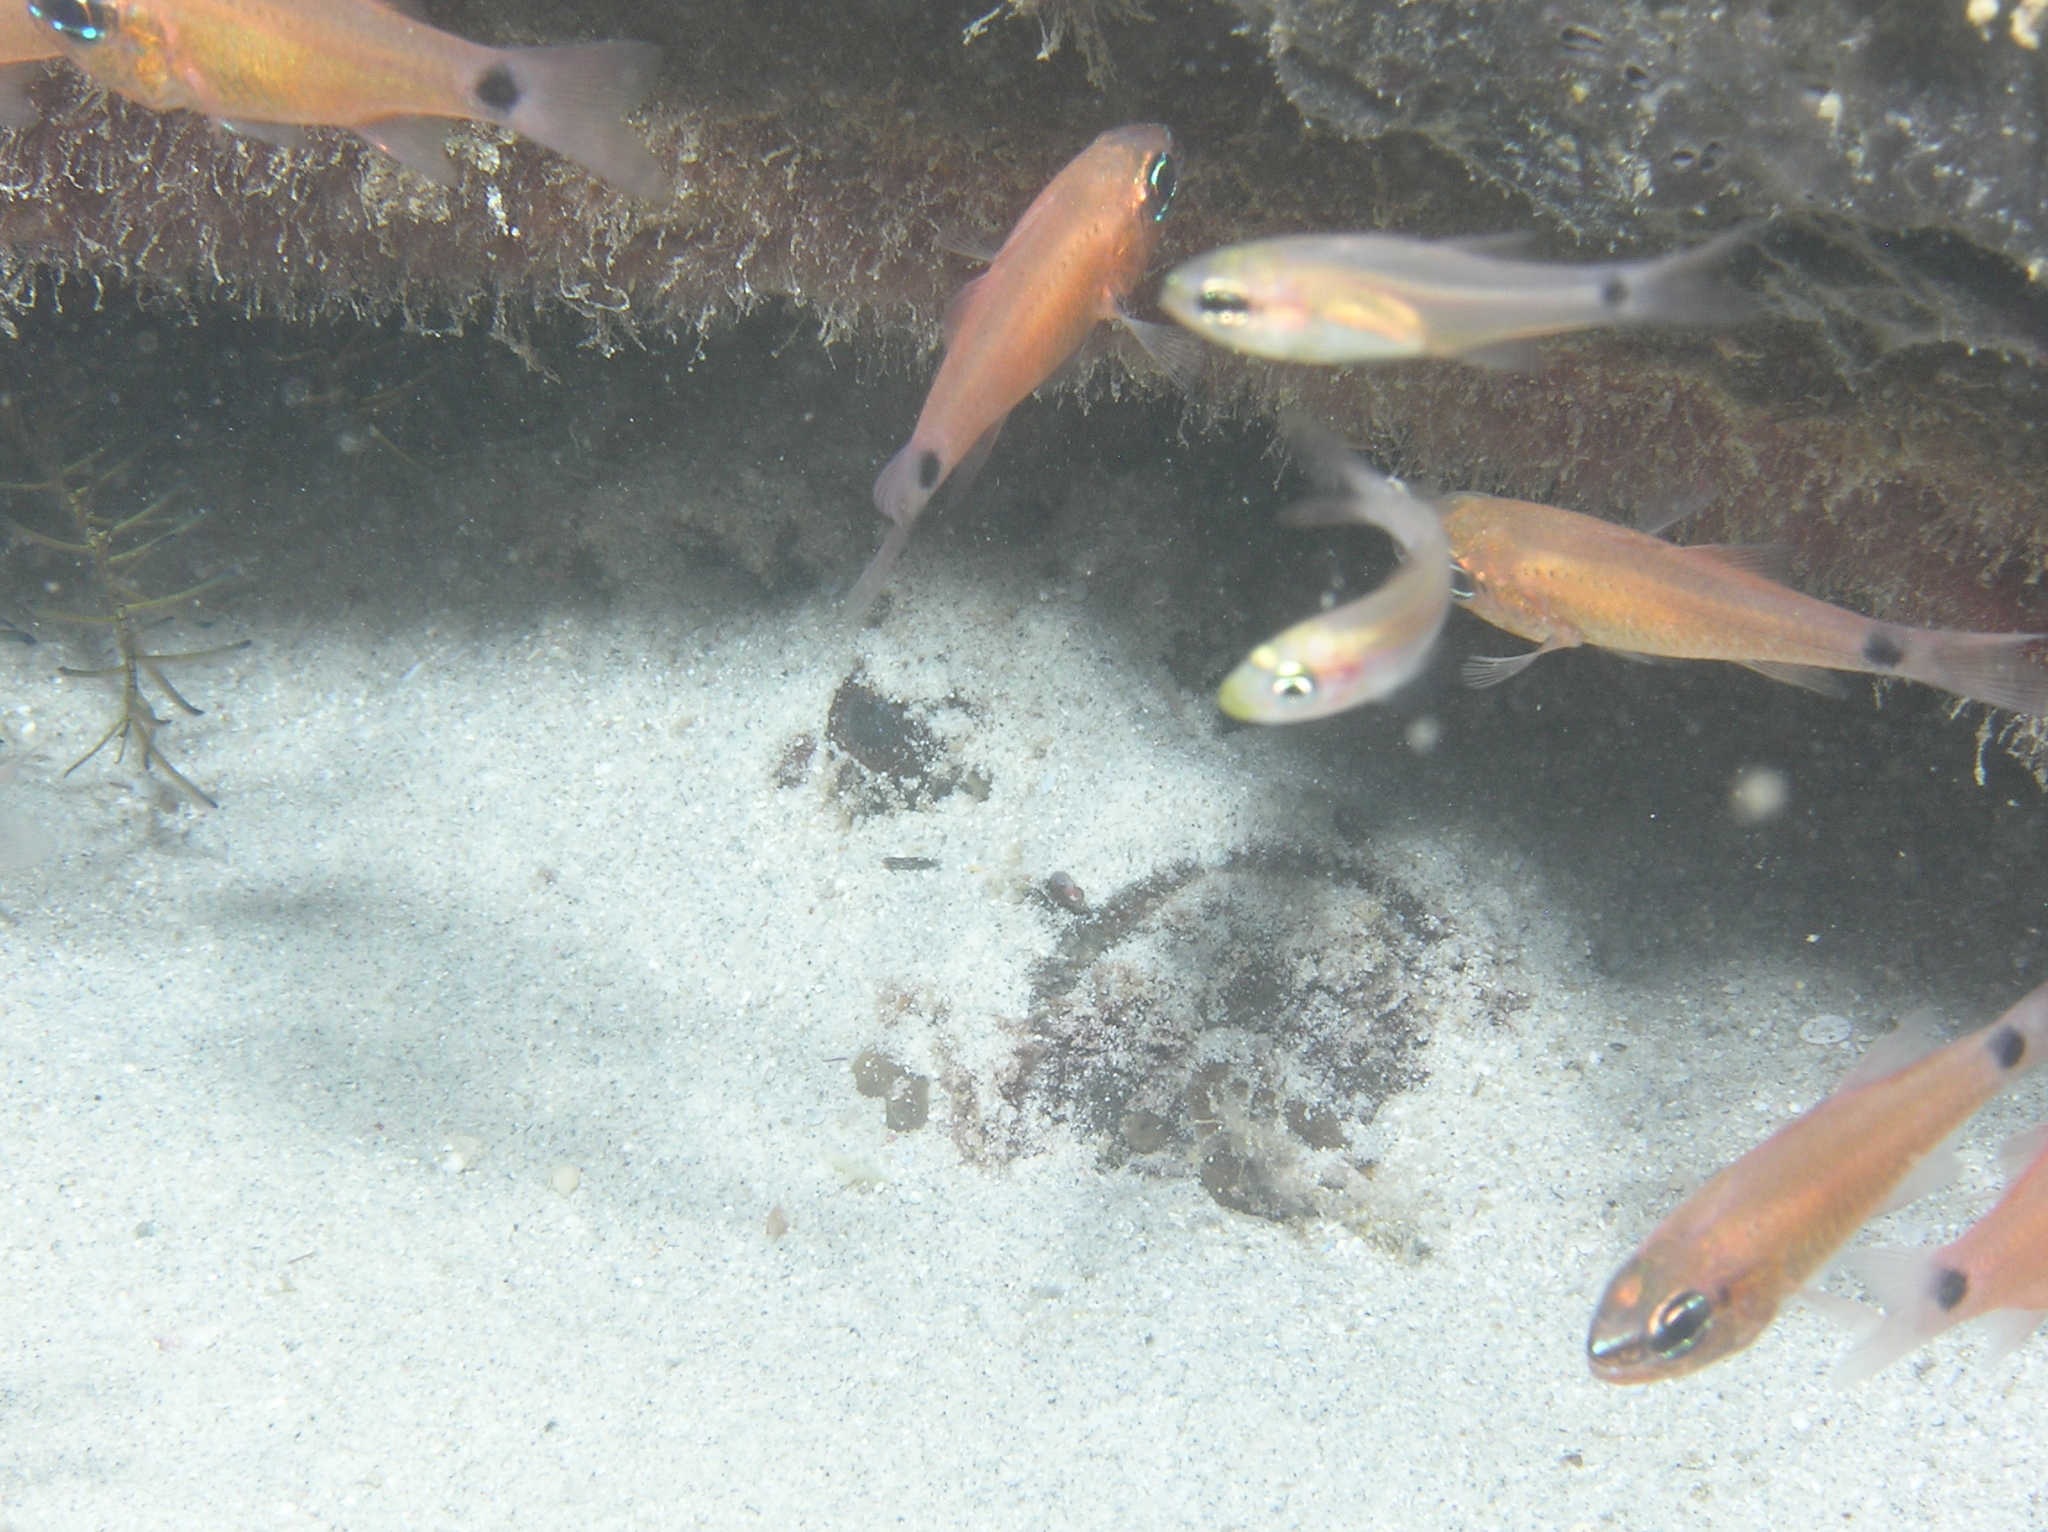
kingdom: Animalia
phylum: Chordata
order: Scorpaeniformes
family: Synanceiidae
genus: Synanceia
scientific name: Synanceia verrucosa
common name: Stonefish
